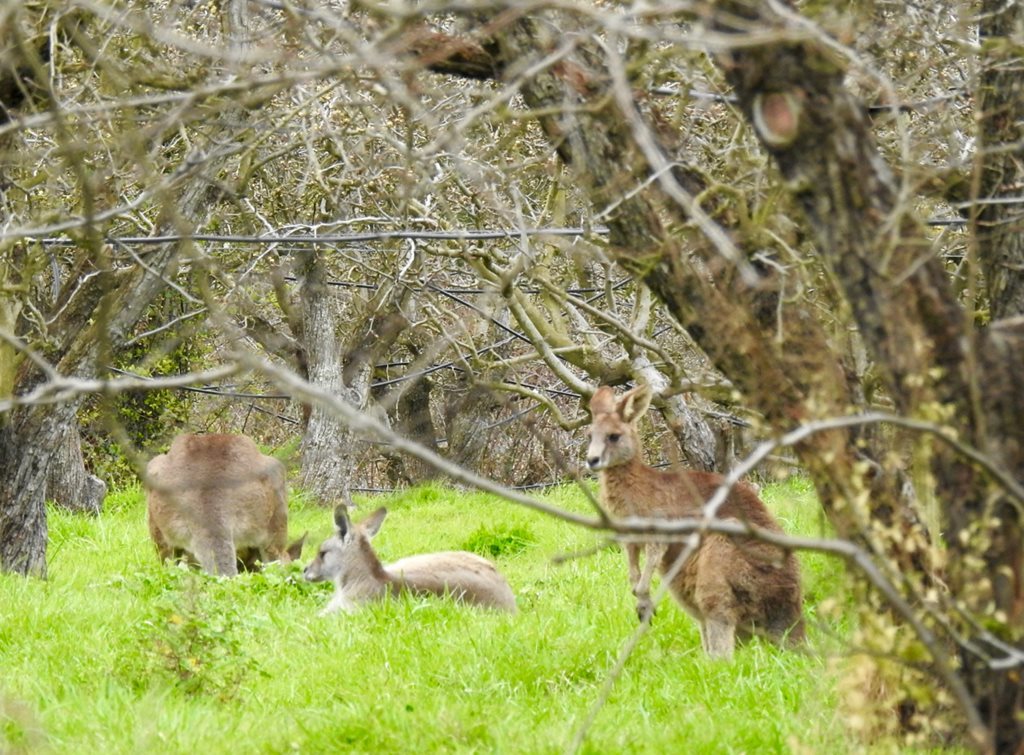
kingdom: Animalia
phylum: Chordata
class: Mammalia
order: Diprotodontia
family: Macropodidae
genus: Macropus
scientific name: Macropus giganteus
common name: Eastern grey kangaroo
